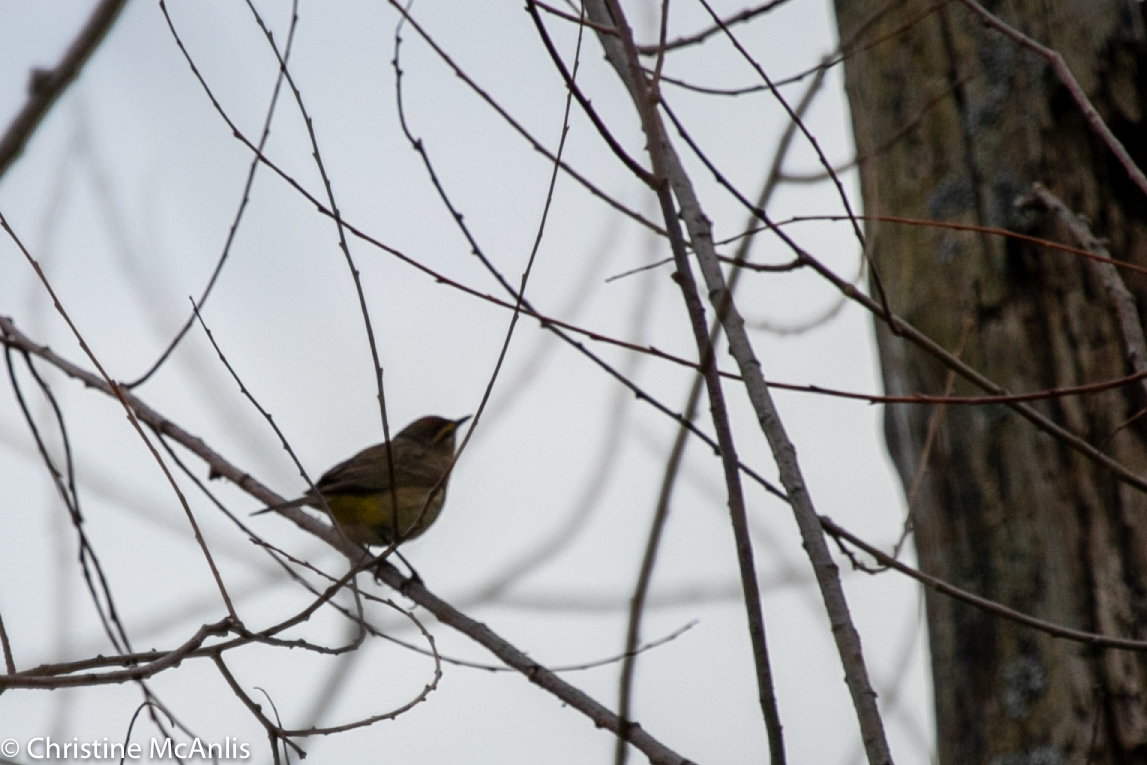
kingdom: Animalia
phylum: Chordata
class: Aves
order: Passeriformes
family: Parulidae
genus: Setophaga
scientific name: Setophaga palmarum
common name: Palm warbler
